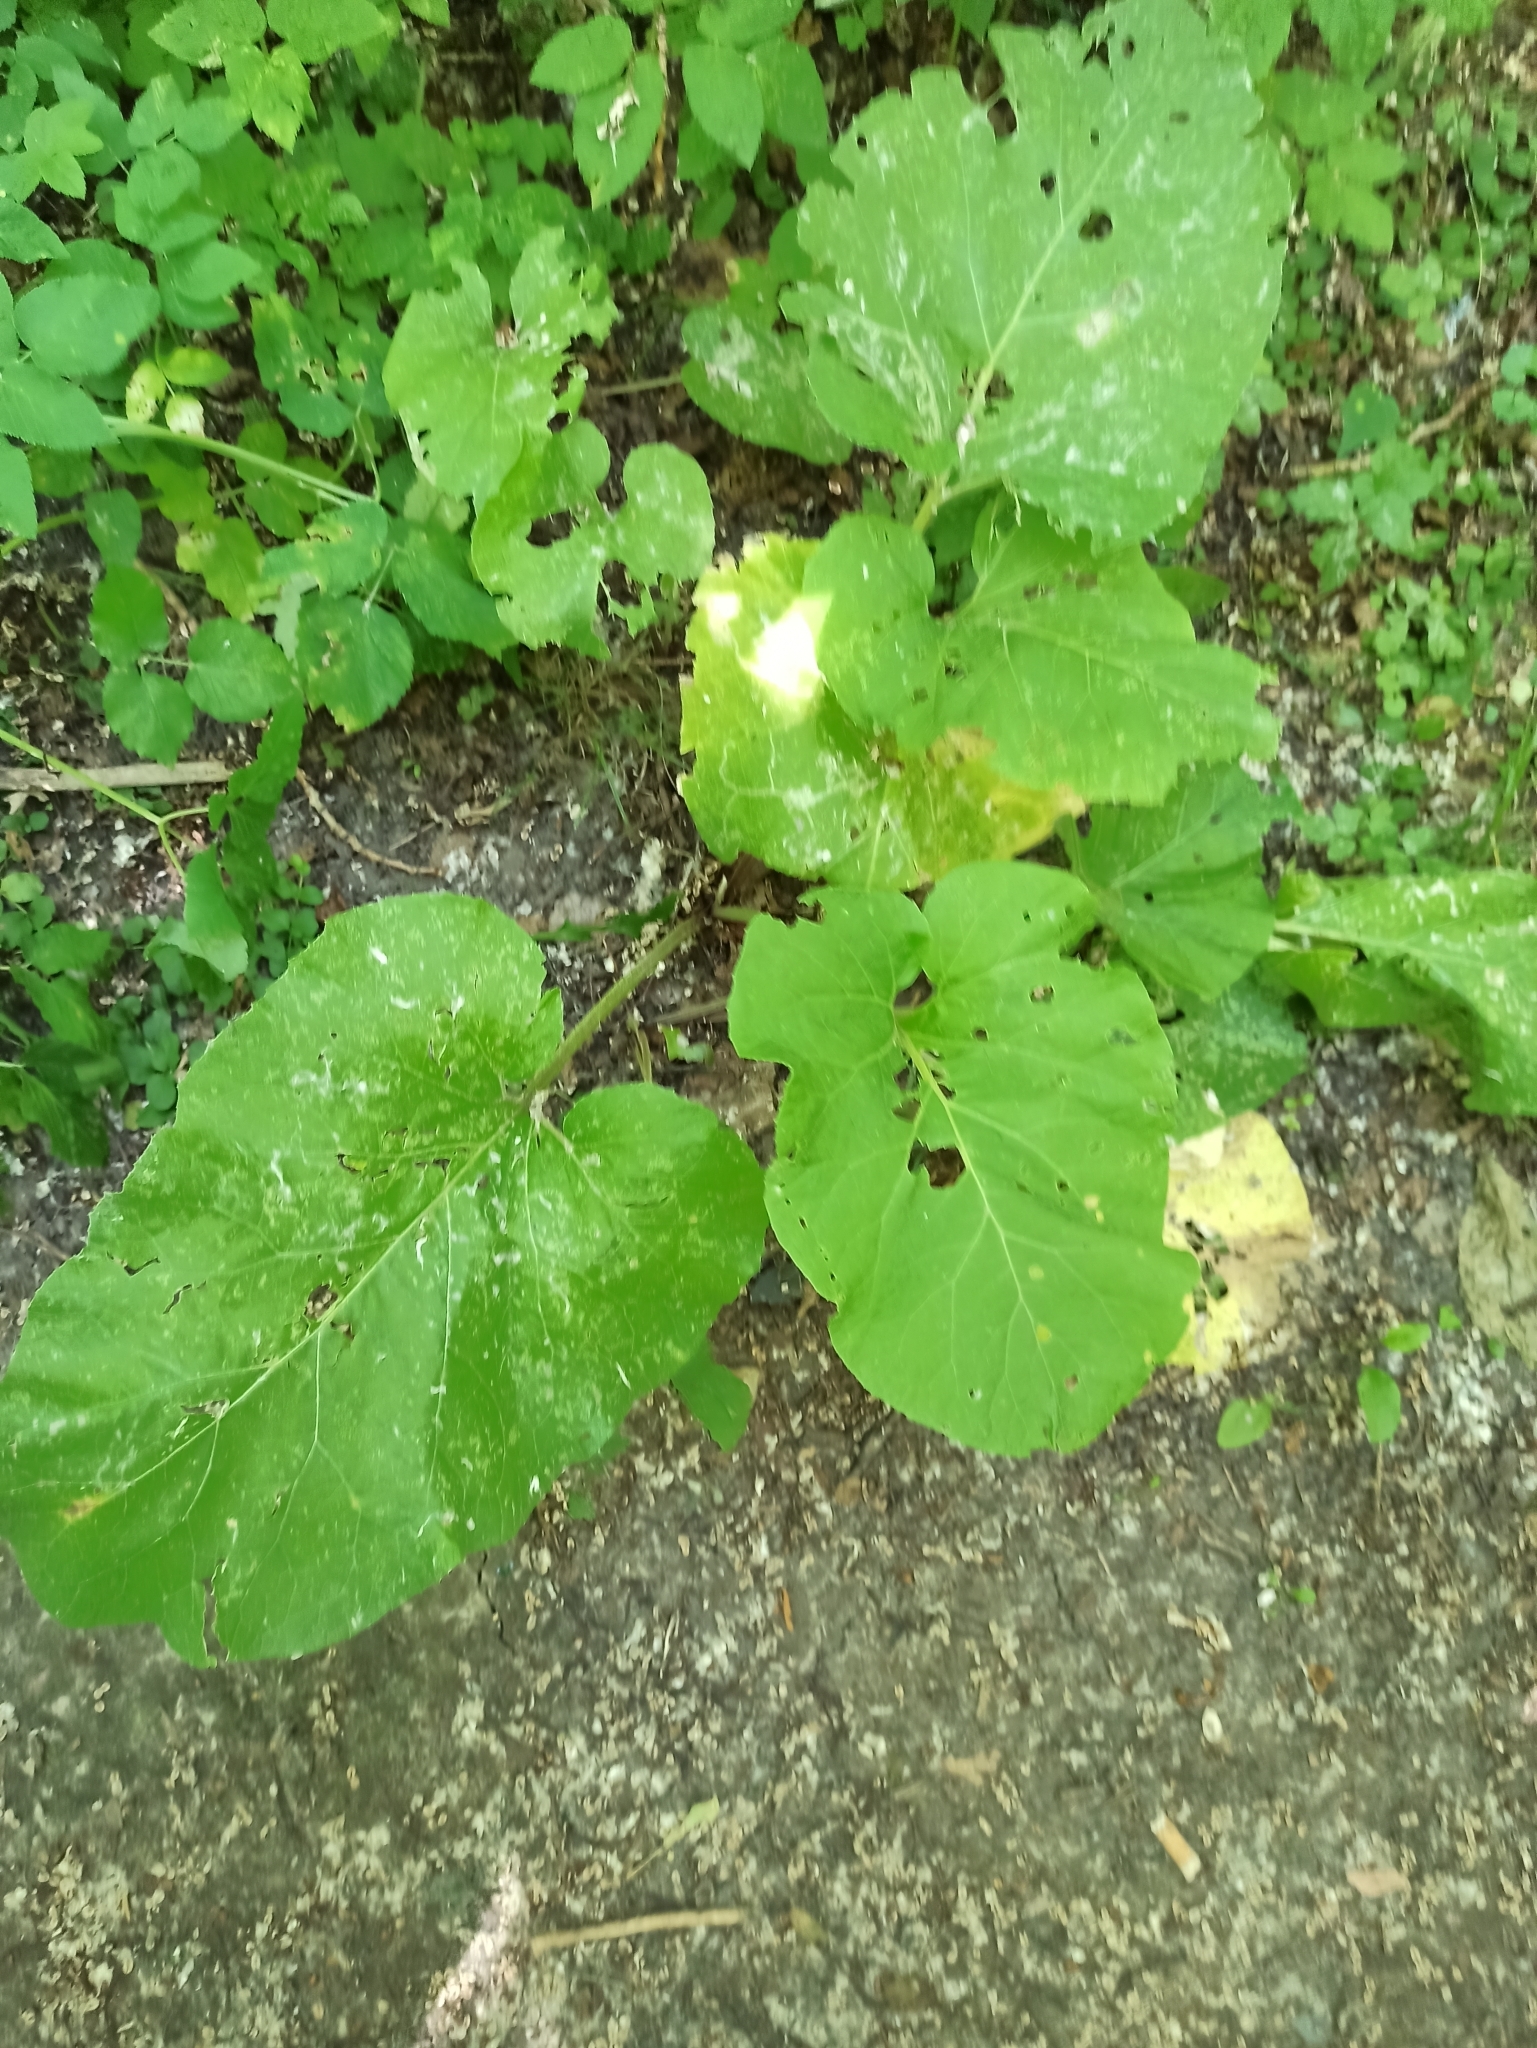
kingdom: Plantae
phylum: Tracheophyta
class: Magnoliopsida
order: Asterales
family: Asteraceae
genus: Arctium
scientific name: Arctium
